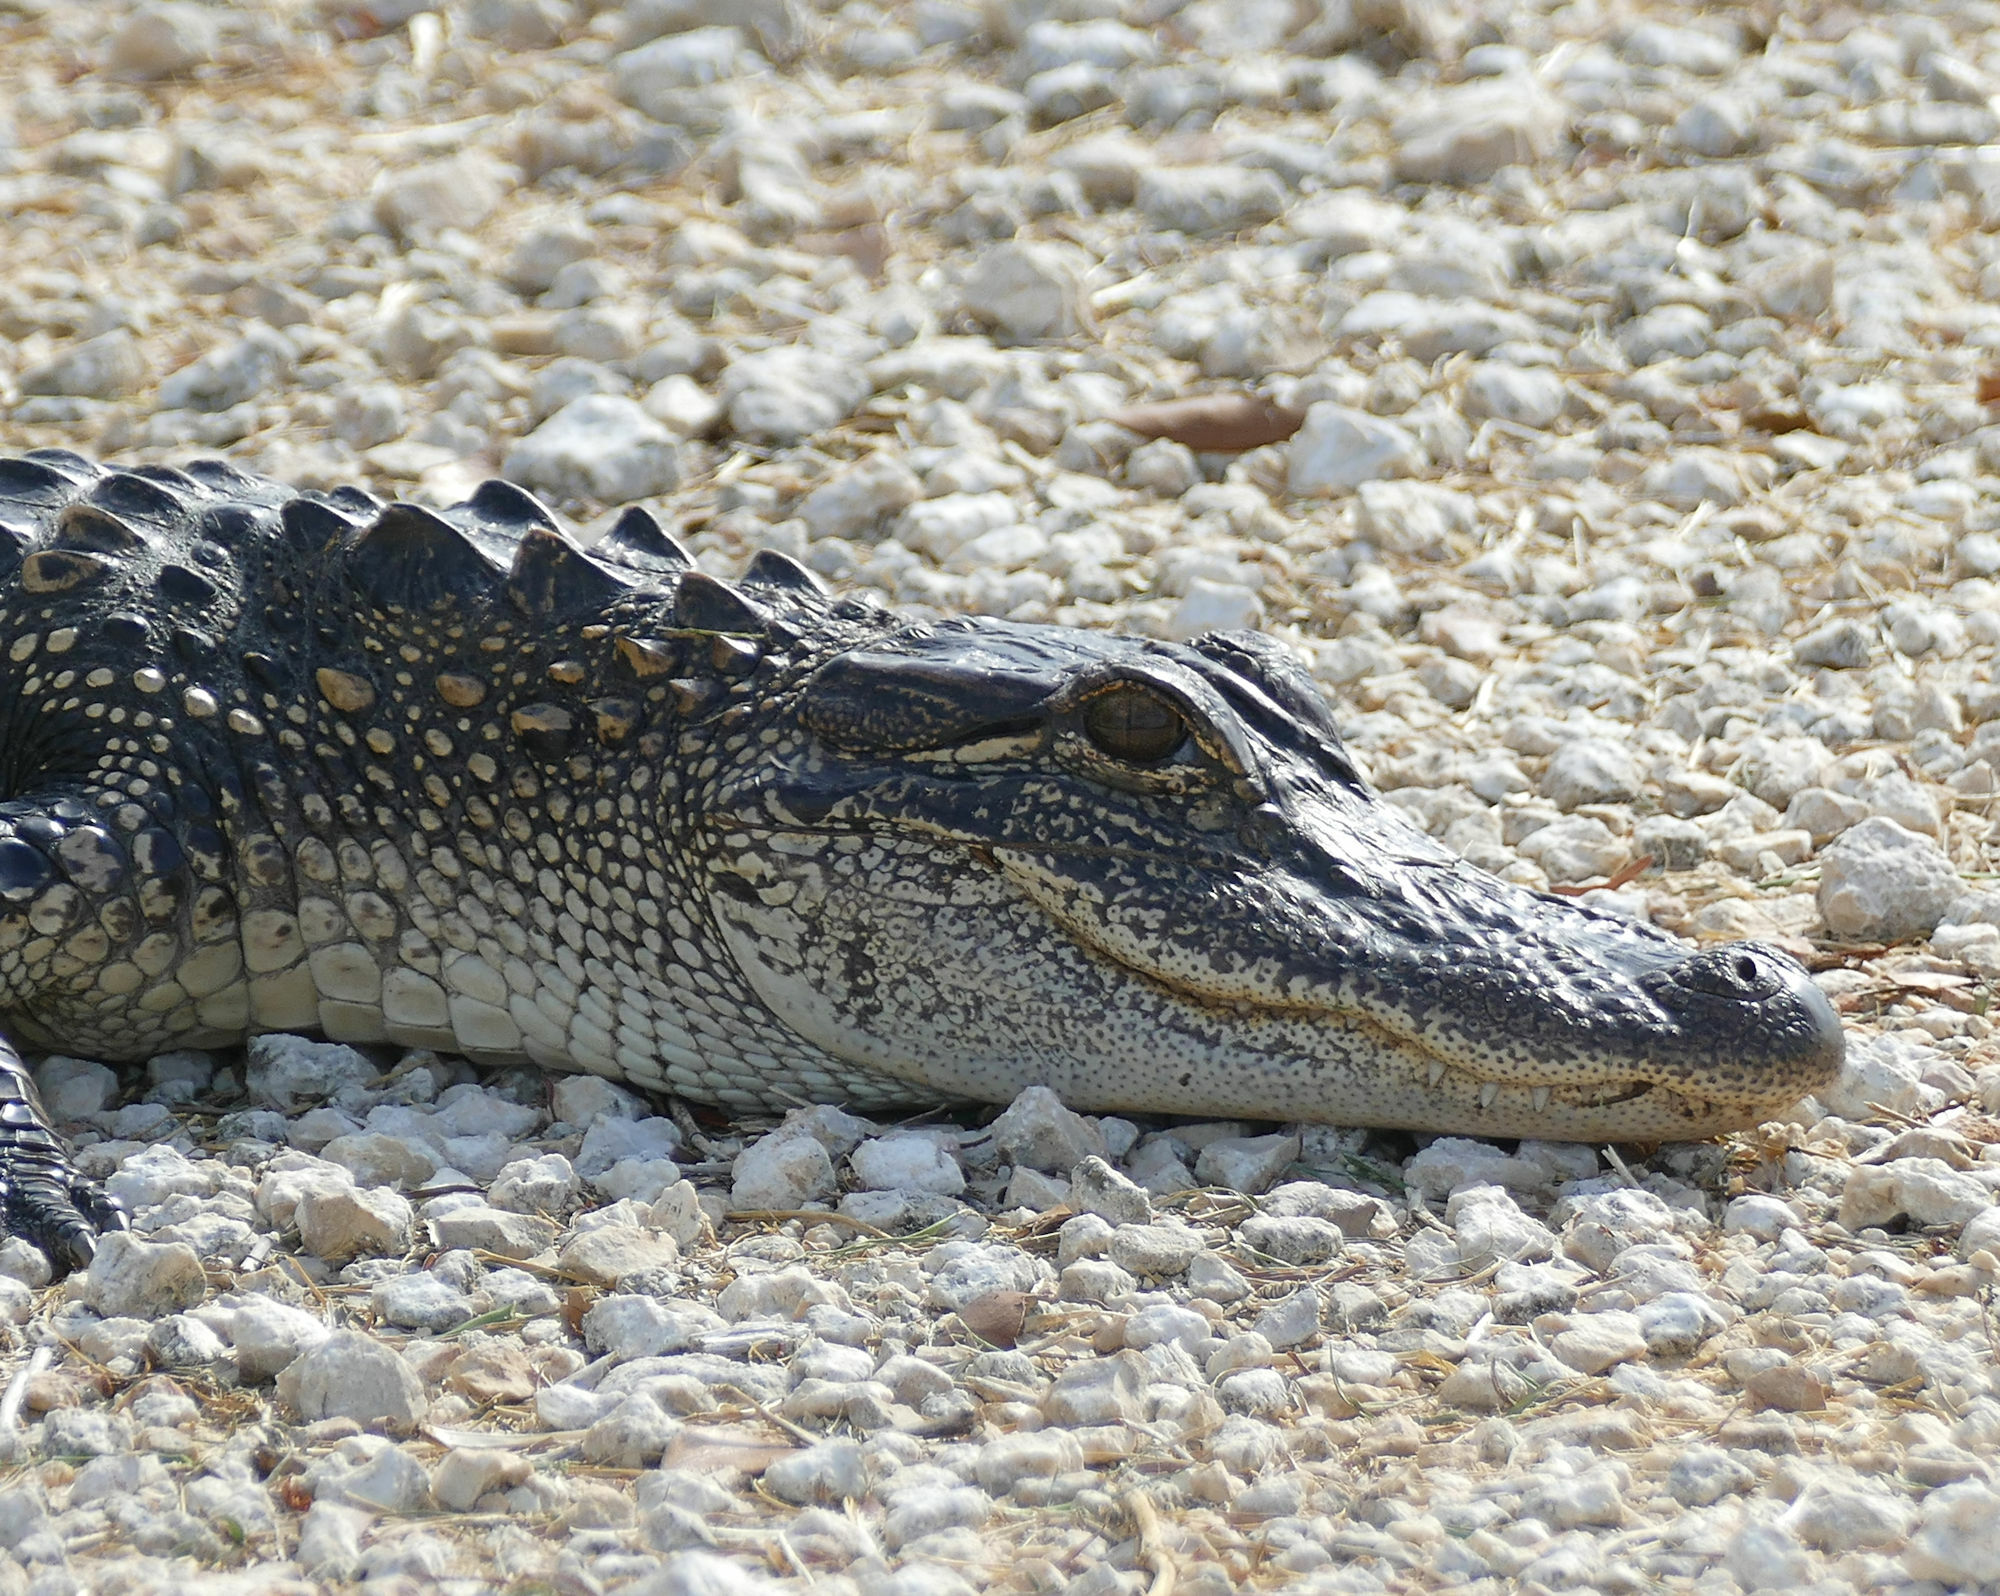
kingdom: Animalia
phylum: Chordata
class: Crocodylia
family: Alligatoridae
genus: Alligator
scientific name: Alligator mississippiensis
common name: American alligator
